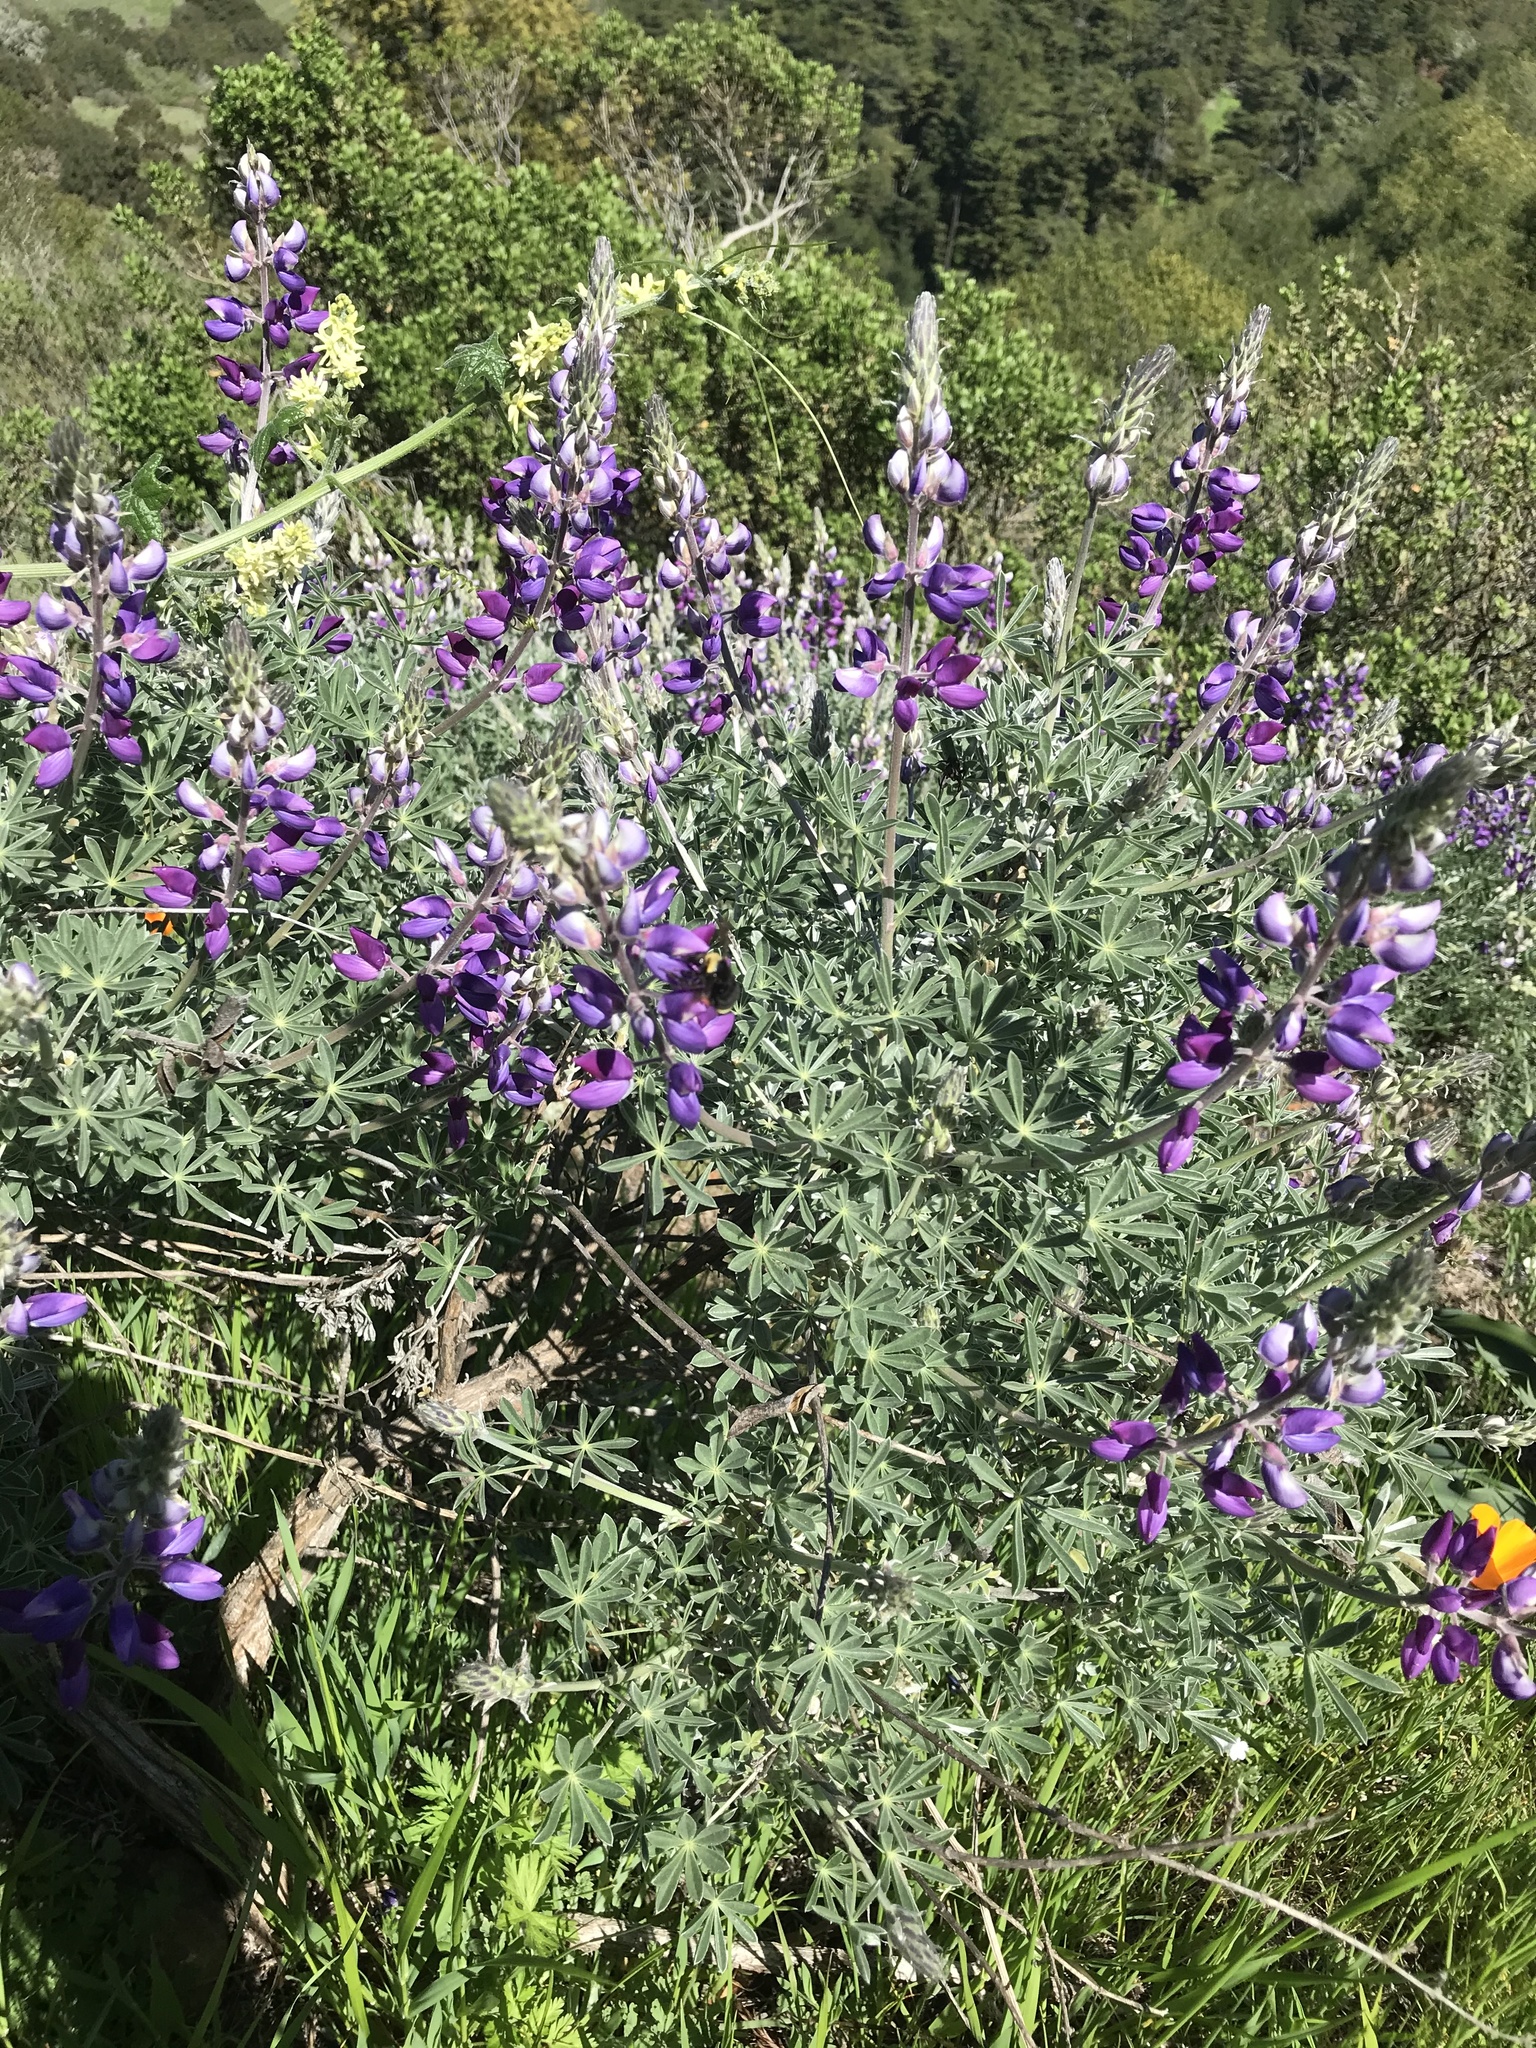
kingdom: Plantae
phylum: Tracheophyta
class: Magnoliopsida
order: Fabales
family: Fabaceae
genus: Lupinus
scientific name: Lupinus albifrons
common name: Foothill lupine
